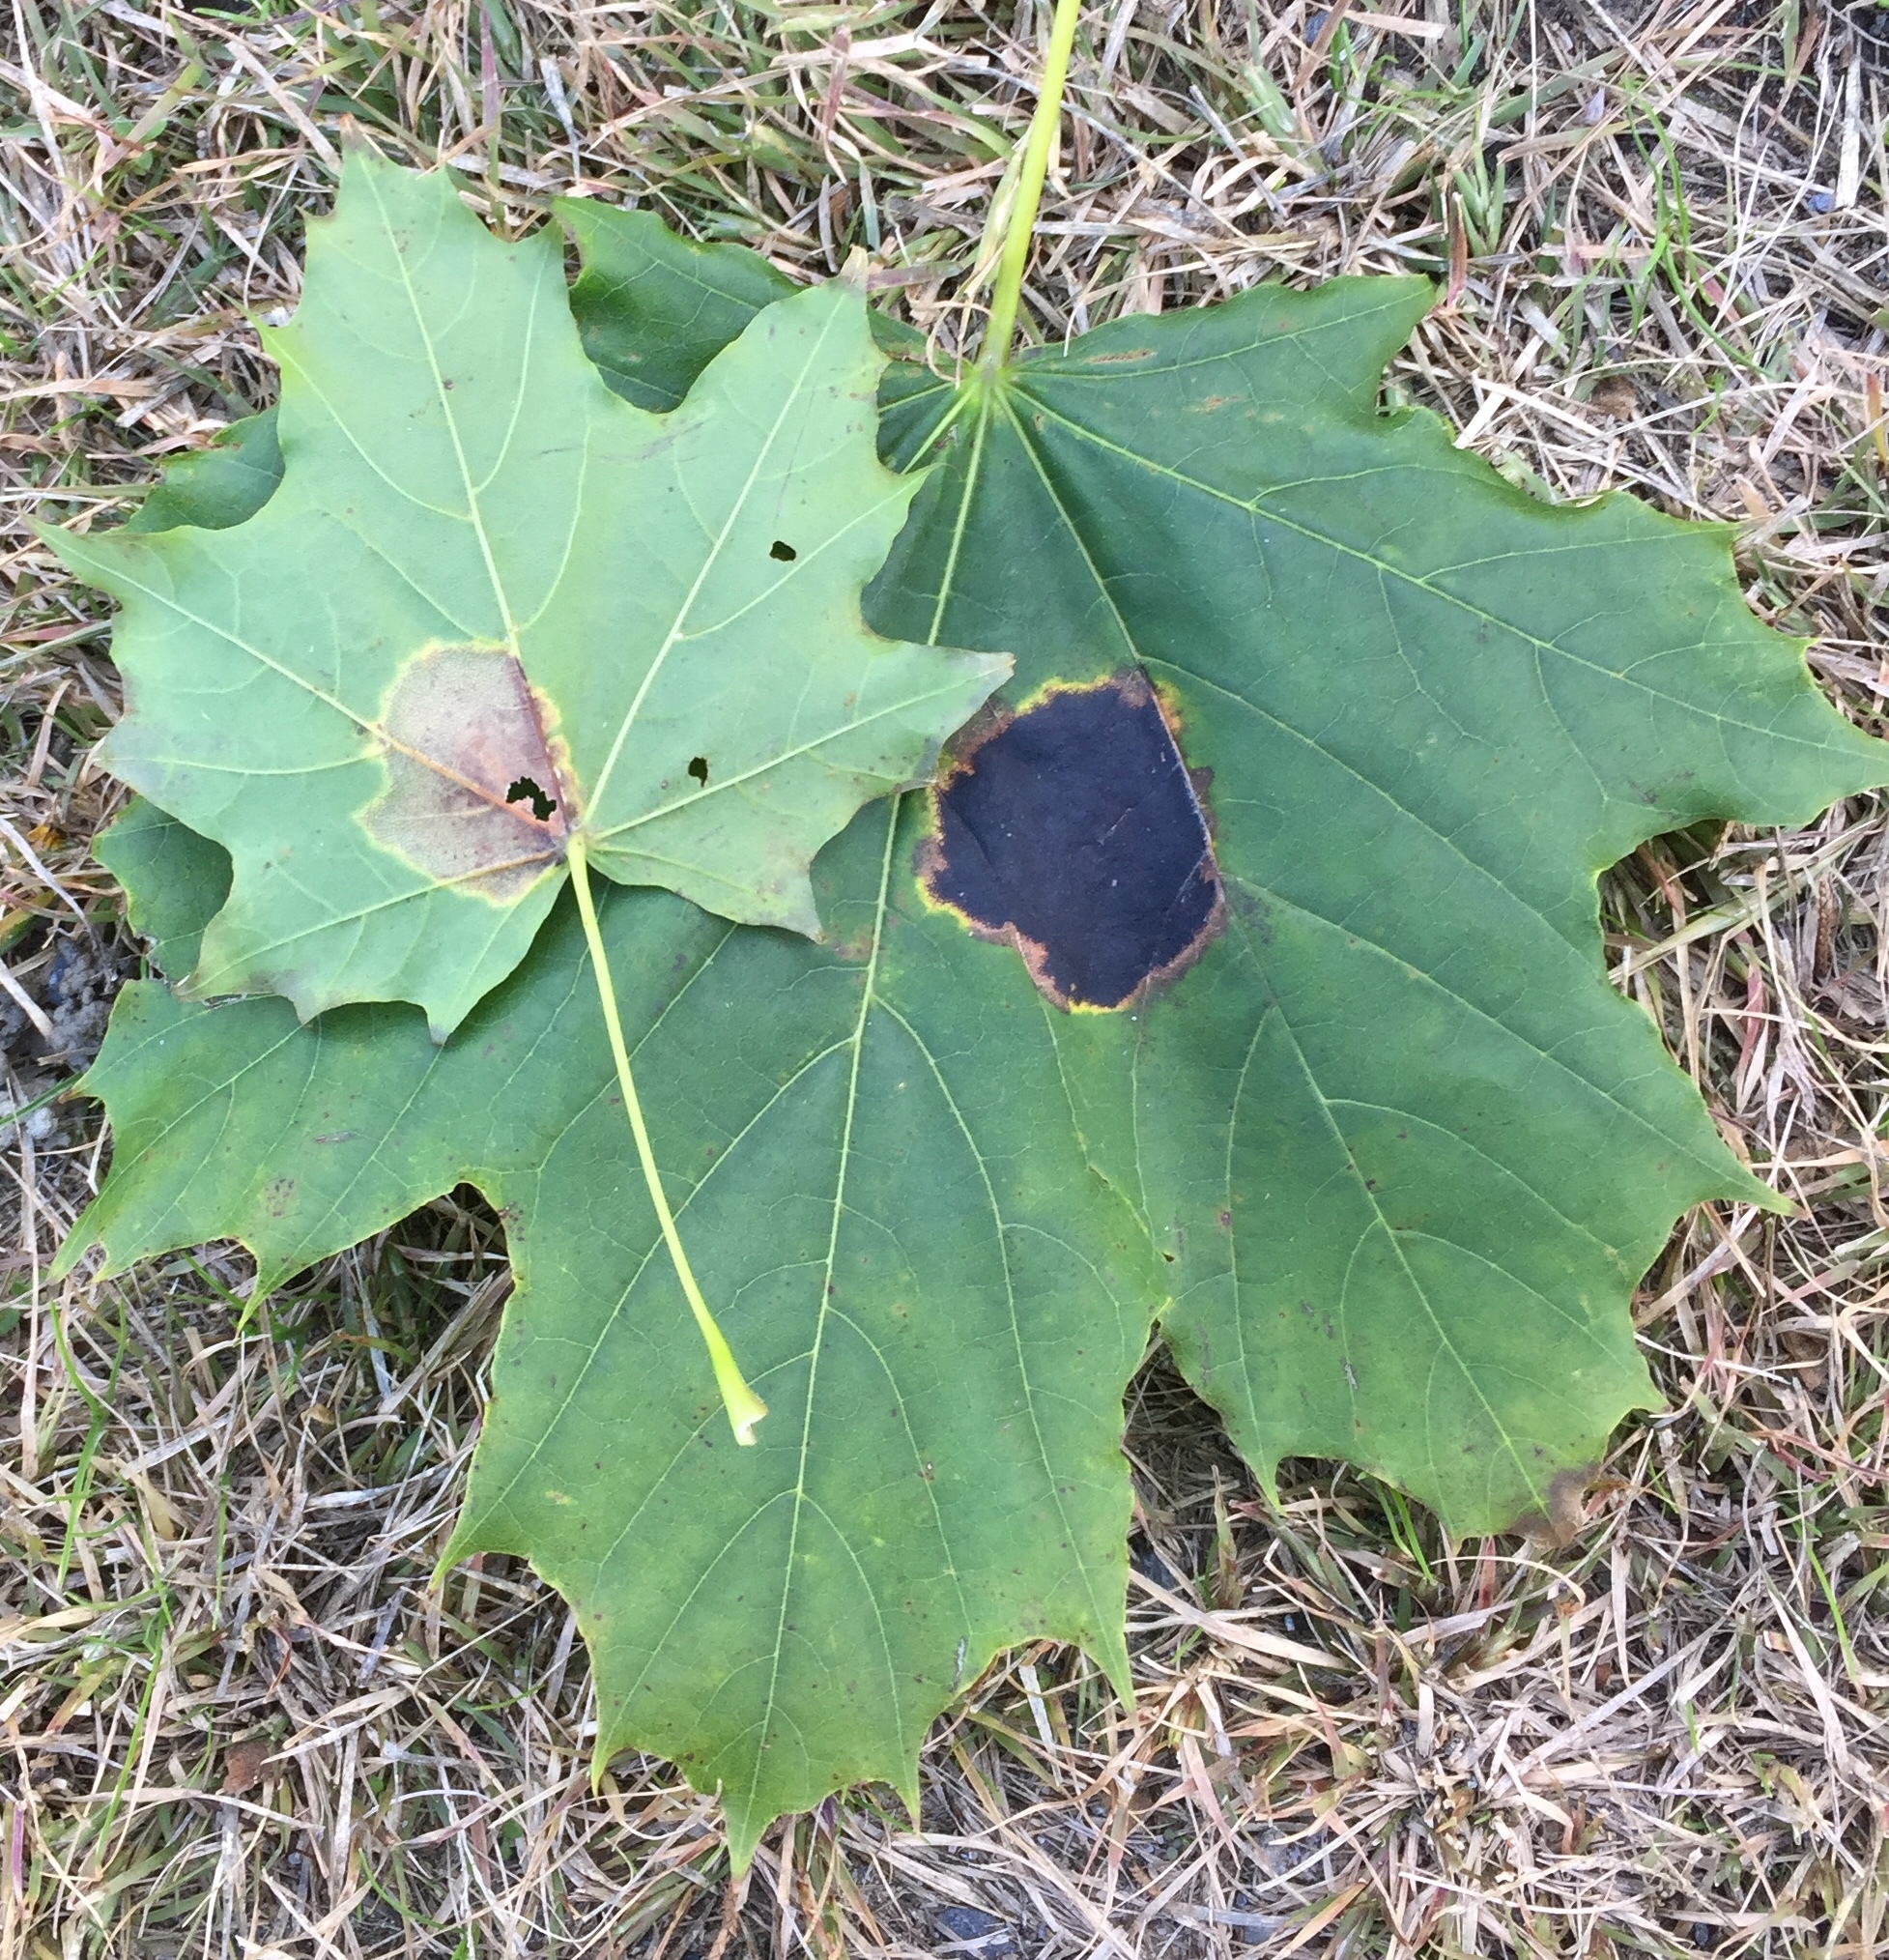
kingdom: Fungi
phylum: Ascomycota
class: Leotiomycetes
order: Rhytismatales
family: Rhytismataceae
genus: Rhytisma
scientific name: Rhytisma acerinum
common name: European tar spot
